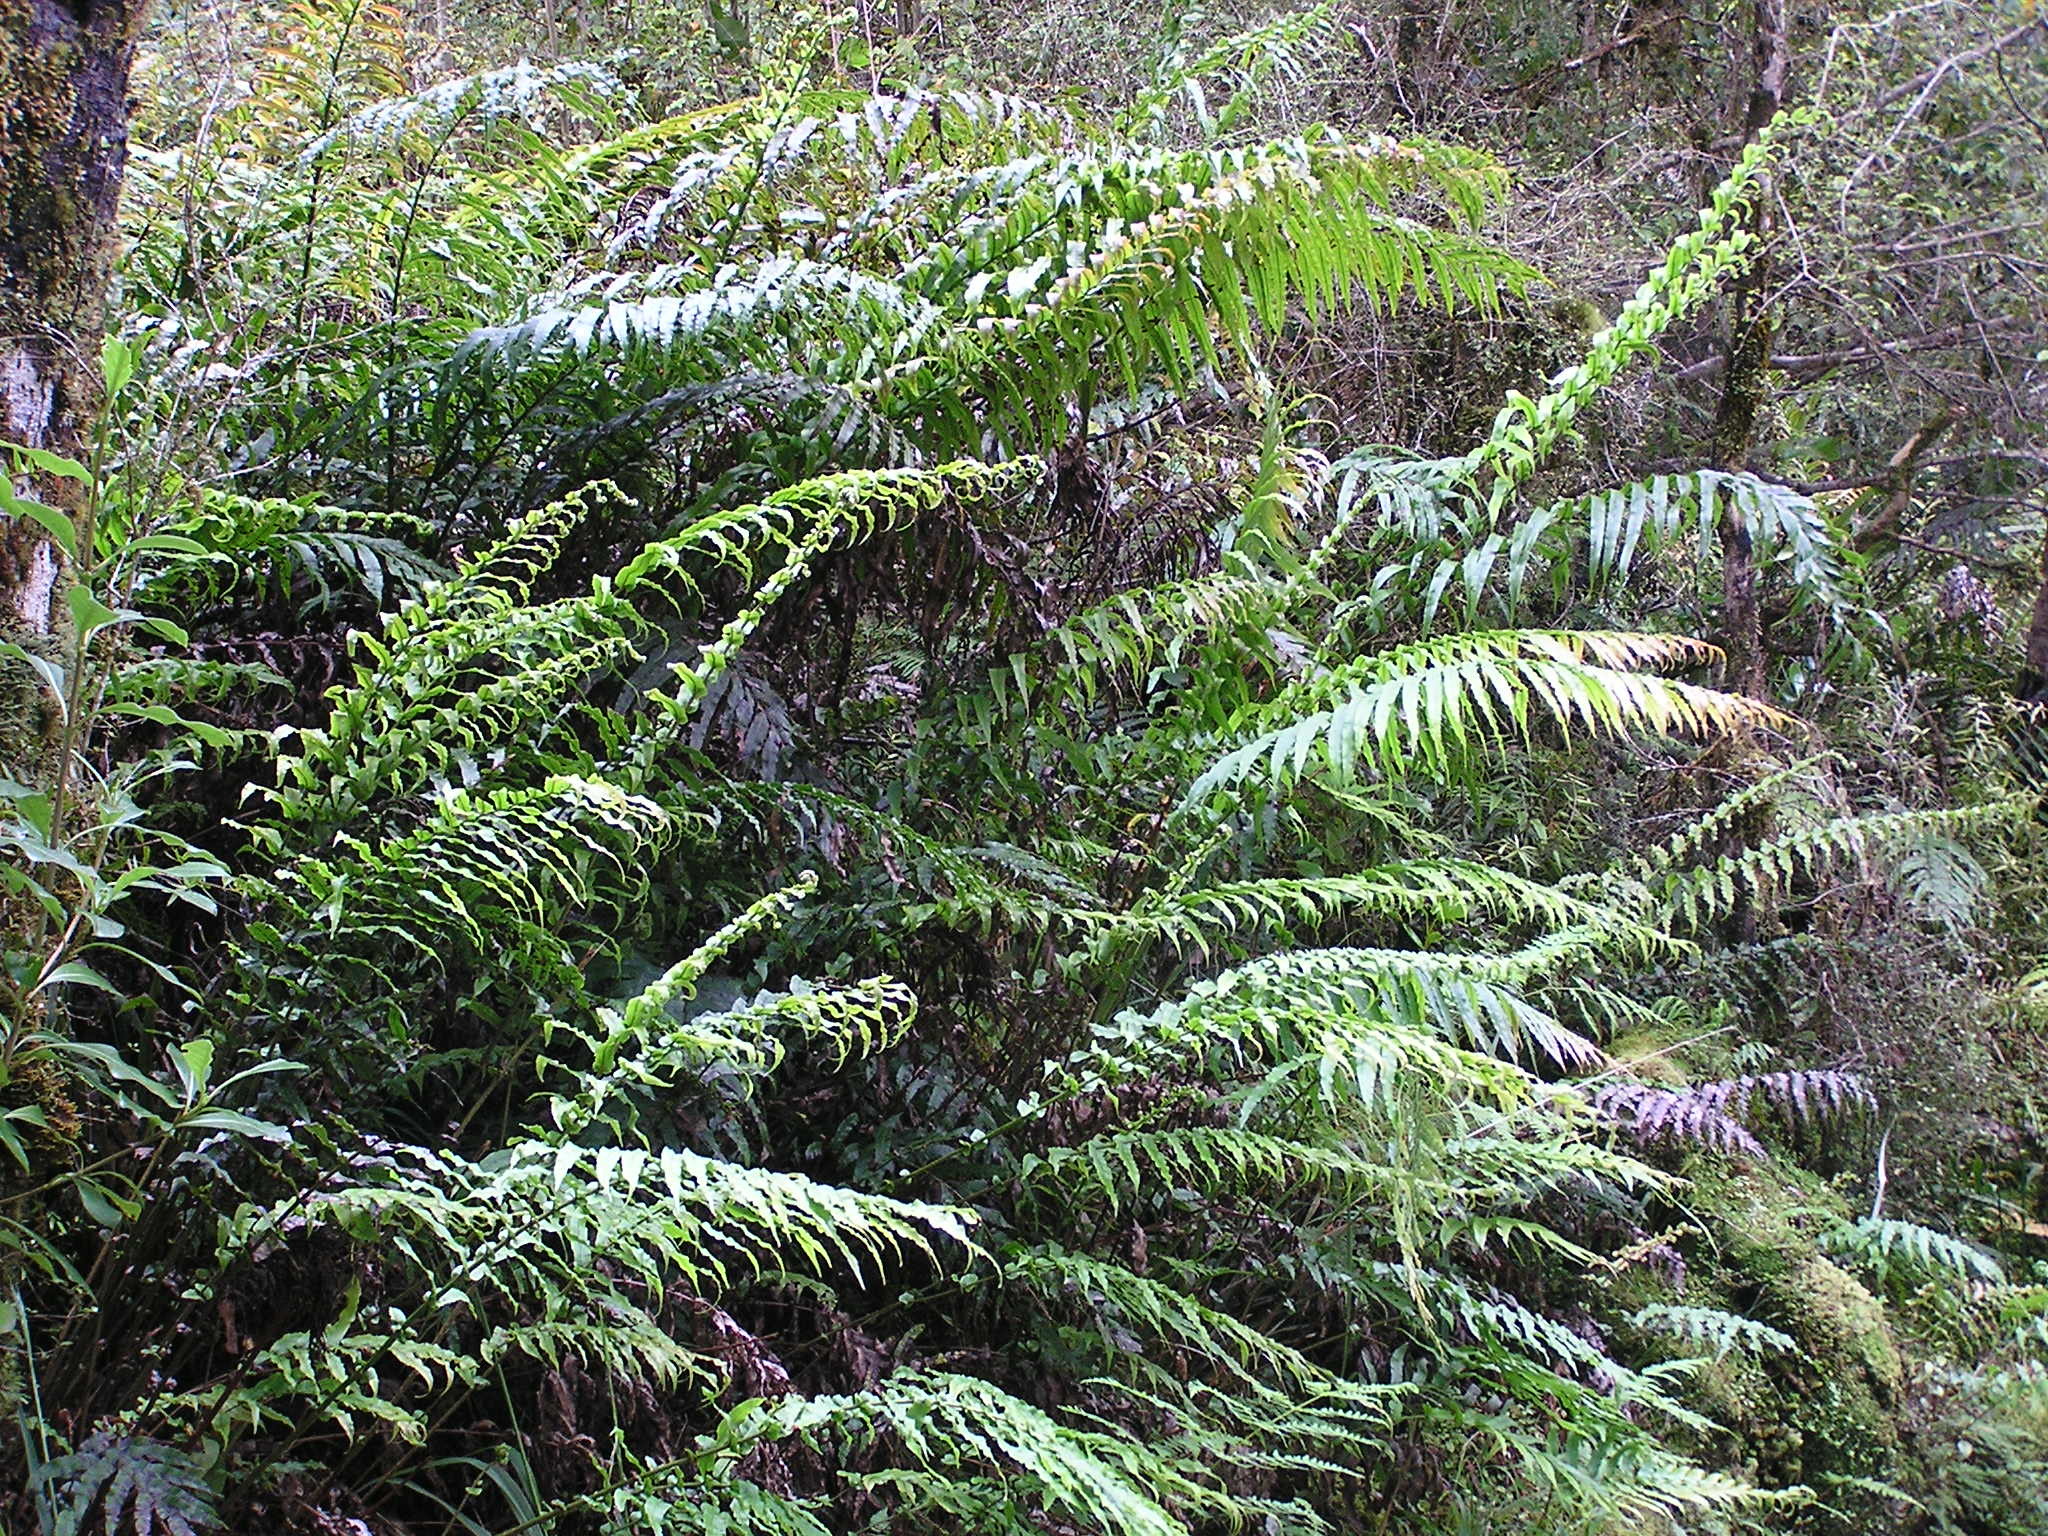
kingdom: Plantae
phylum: Tracheophyta
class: Polypodiopsida
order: Polypodiales
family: Blechnaceae
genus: Parablechnum
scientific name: Parablechnum novae-zelandiae
